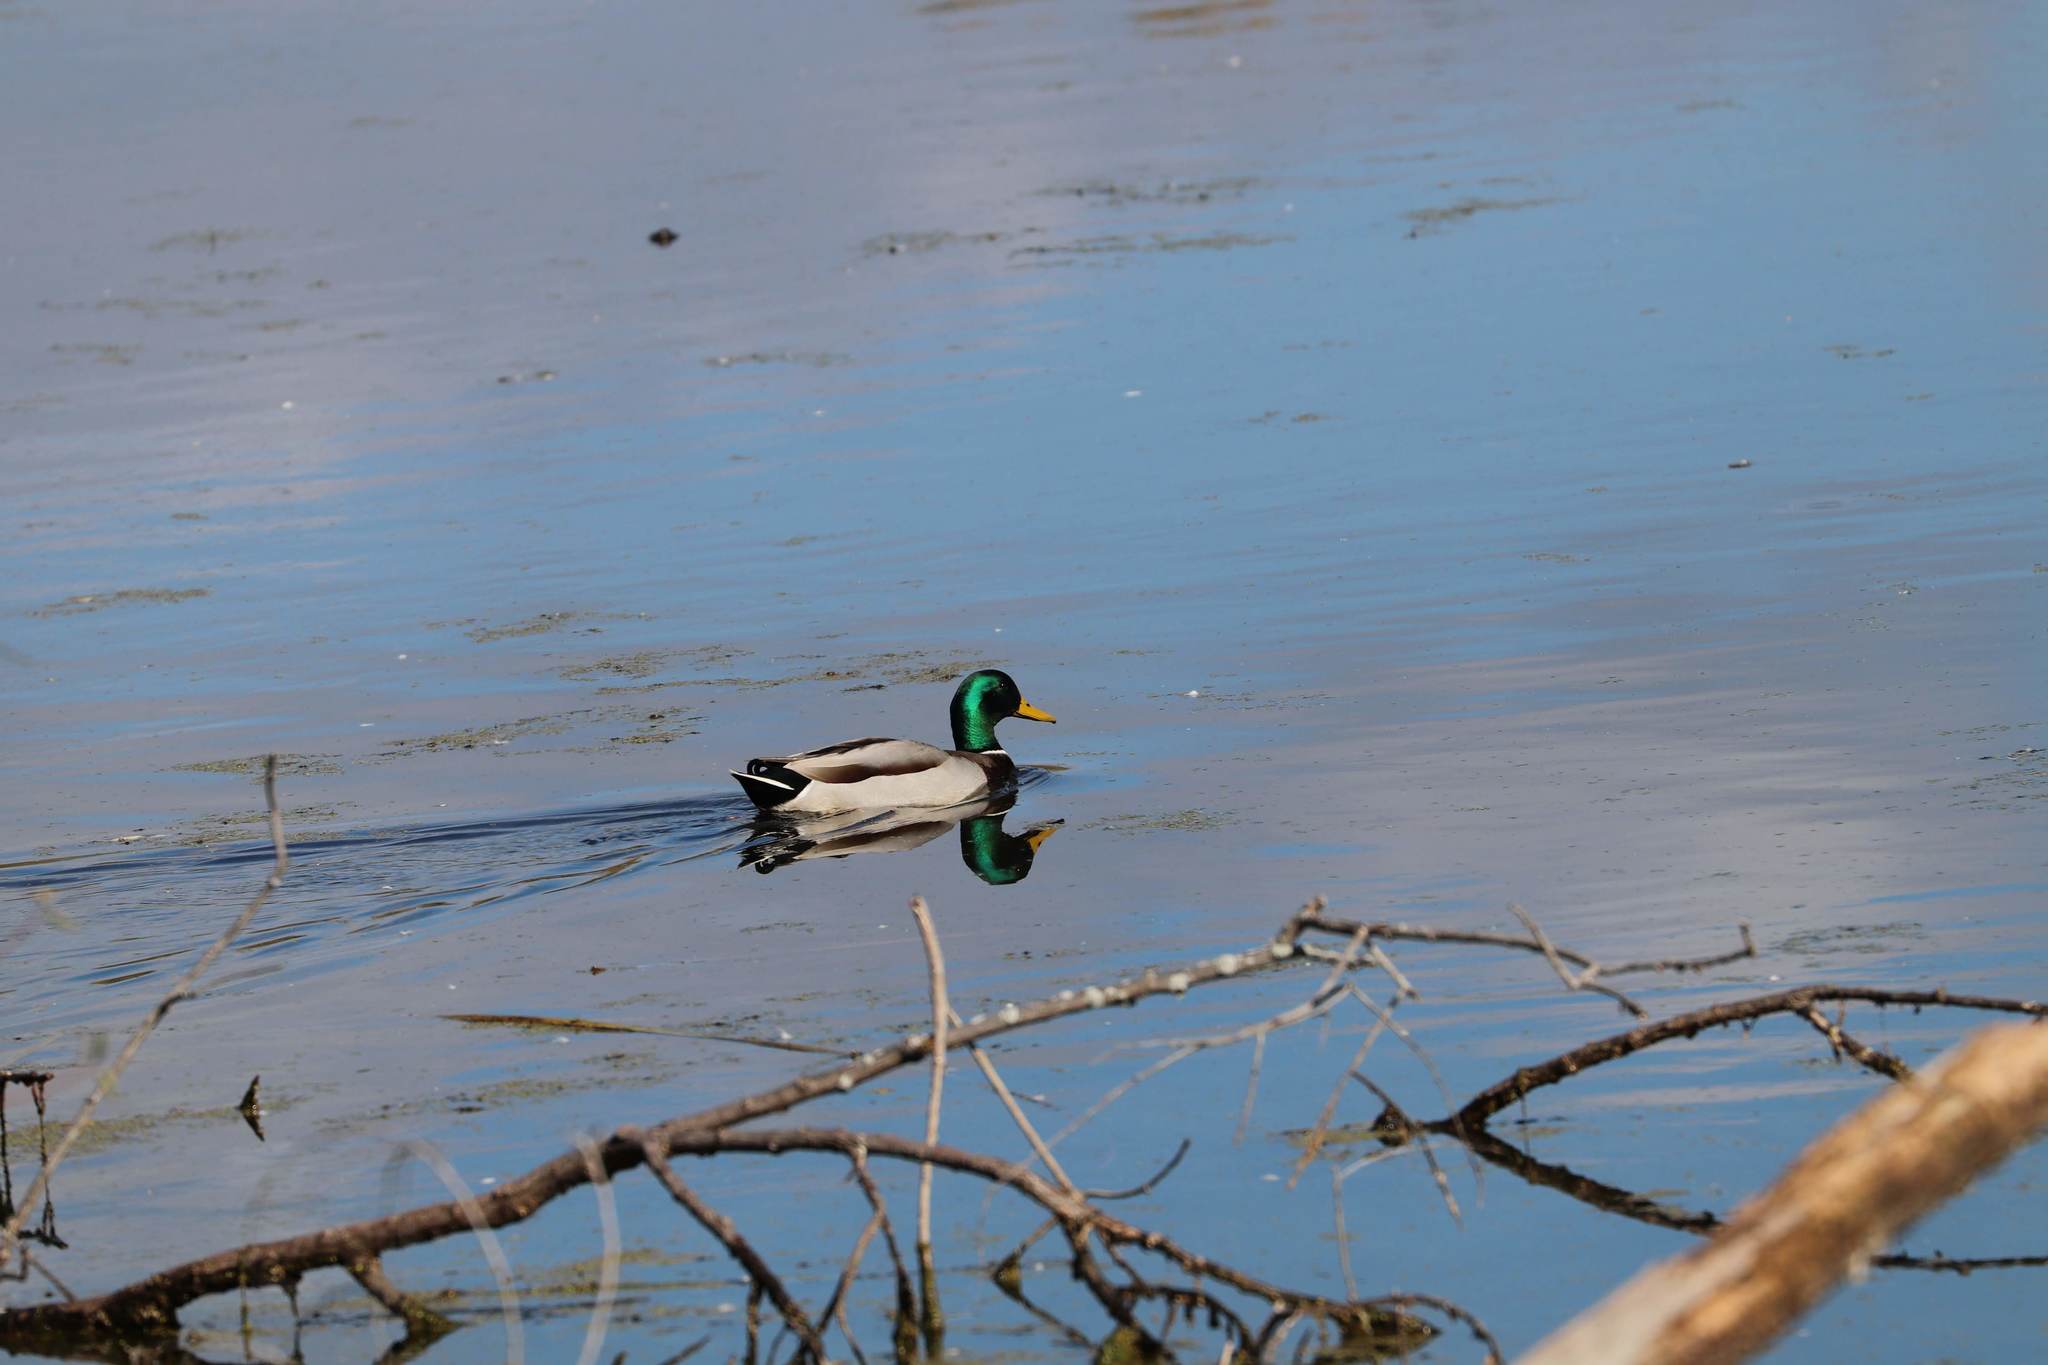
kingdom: Animalia
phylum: Chordata
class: Aves
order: Anseriformes
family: Anatidae
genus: Anas
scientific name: Anas platyrhynchos
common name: Mallard
